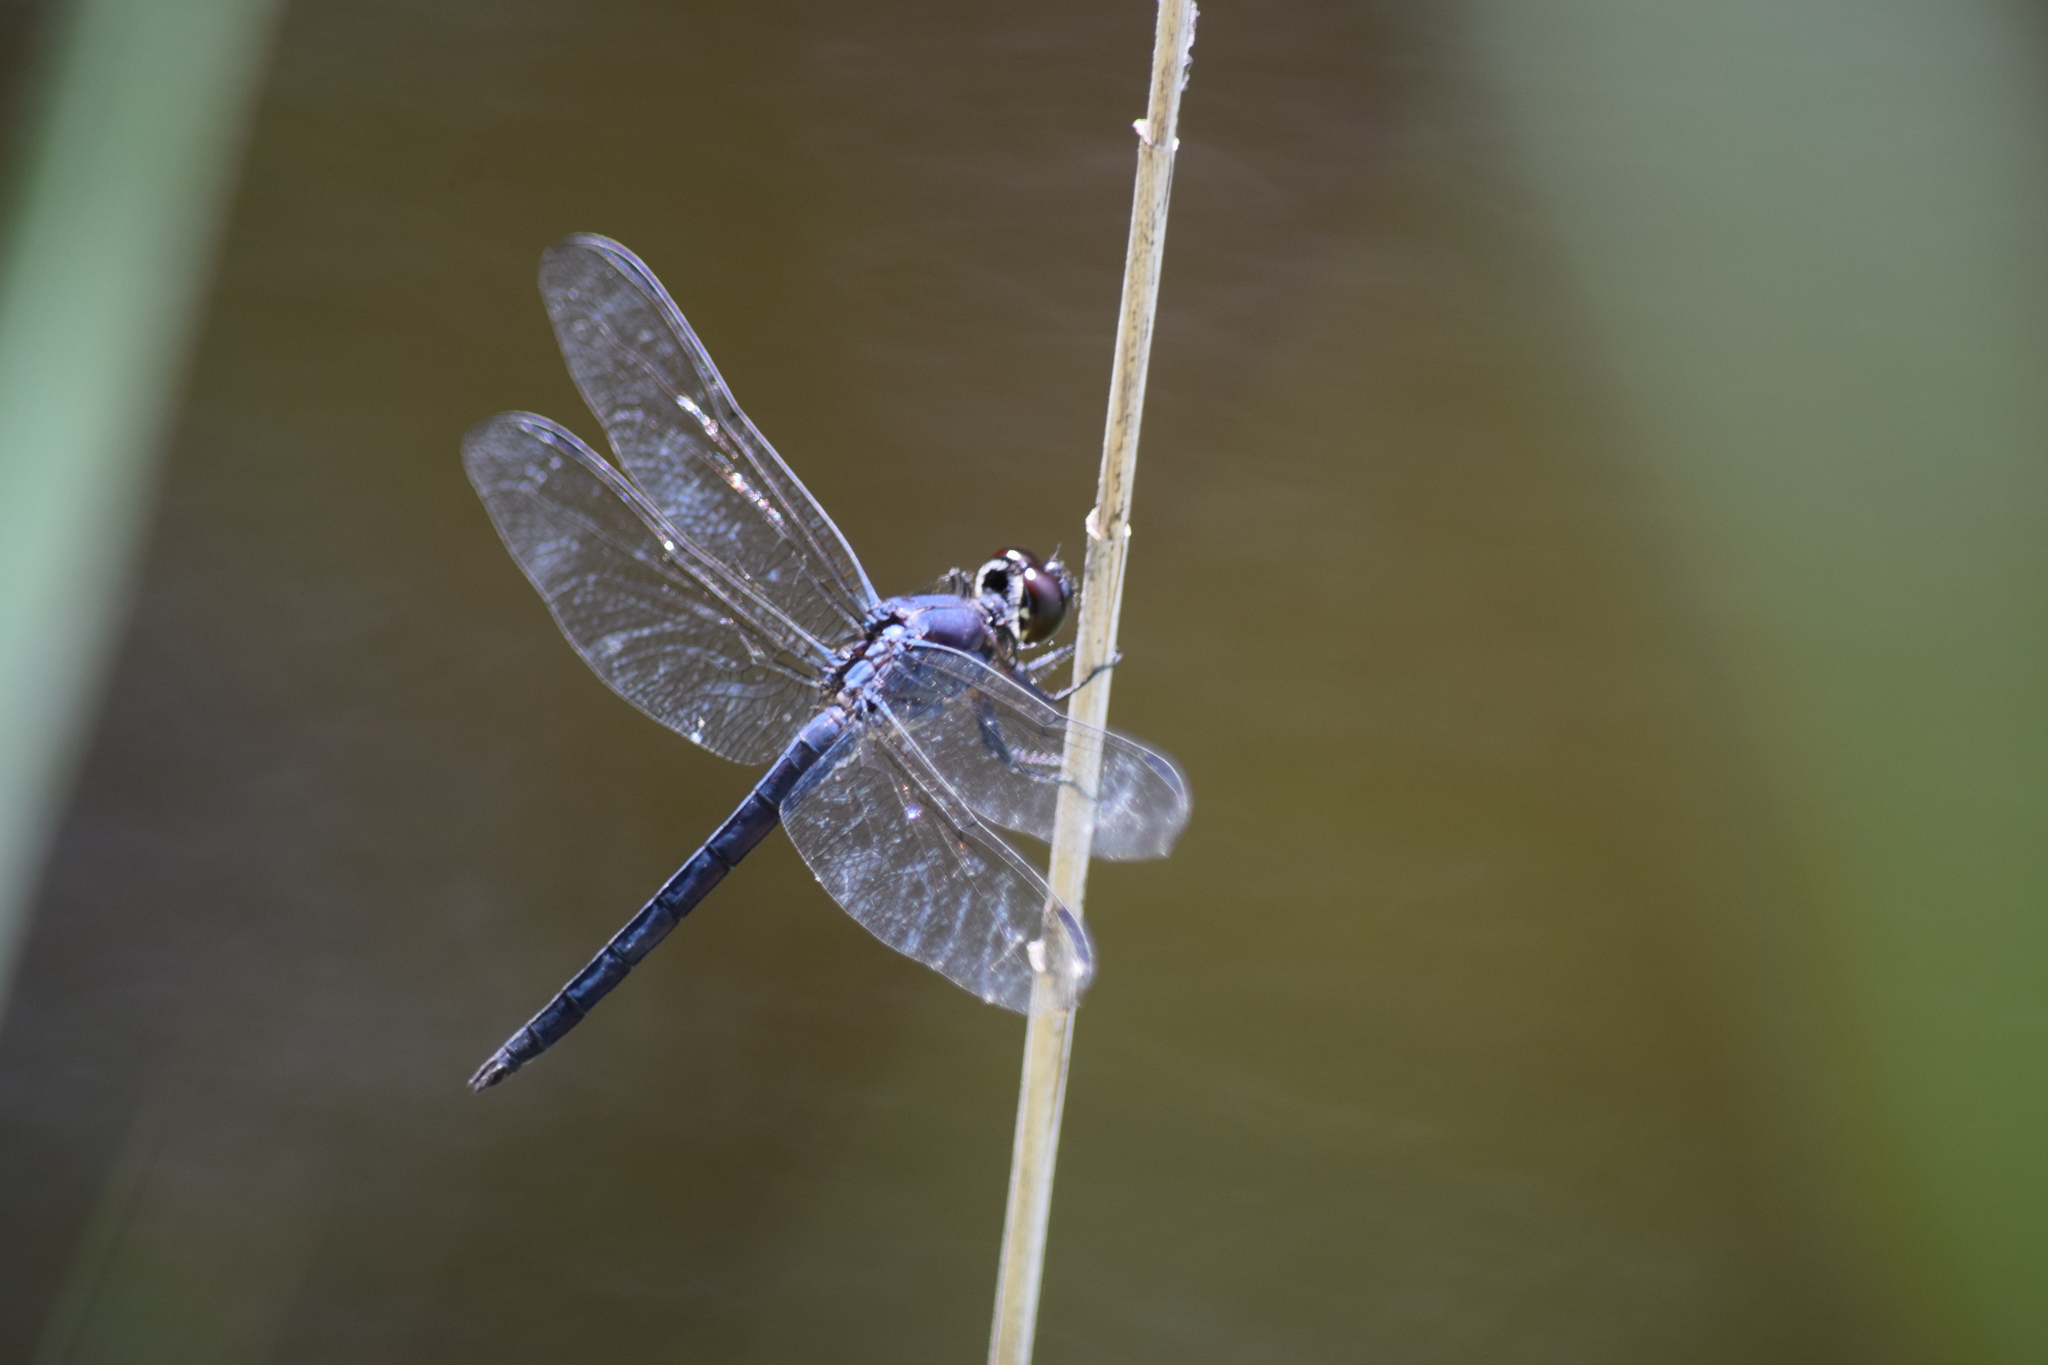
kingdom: Animalia
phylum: Arthropoda
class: Insecta
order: Odonata
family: Libellulidae
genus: Libellula
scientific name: Libellula incesta
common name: Slaty skimmer
